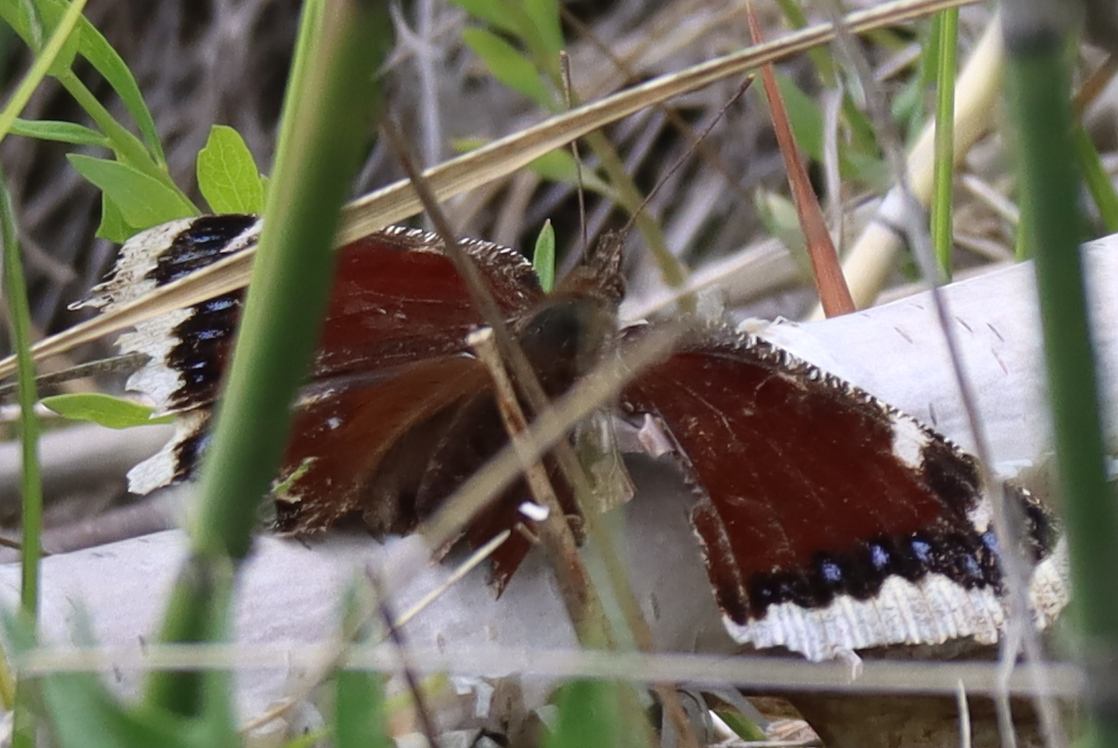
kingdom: Animalia
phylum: Arthropoda
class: Insecta
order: Lepidoptera
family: Nymphalidae
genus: Nymphalis
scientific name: Nymphalis antiopa
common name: Camberwell beauty
